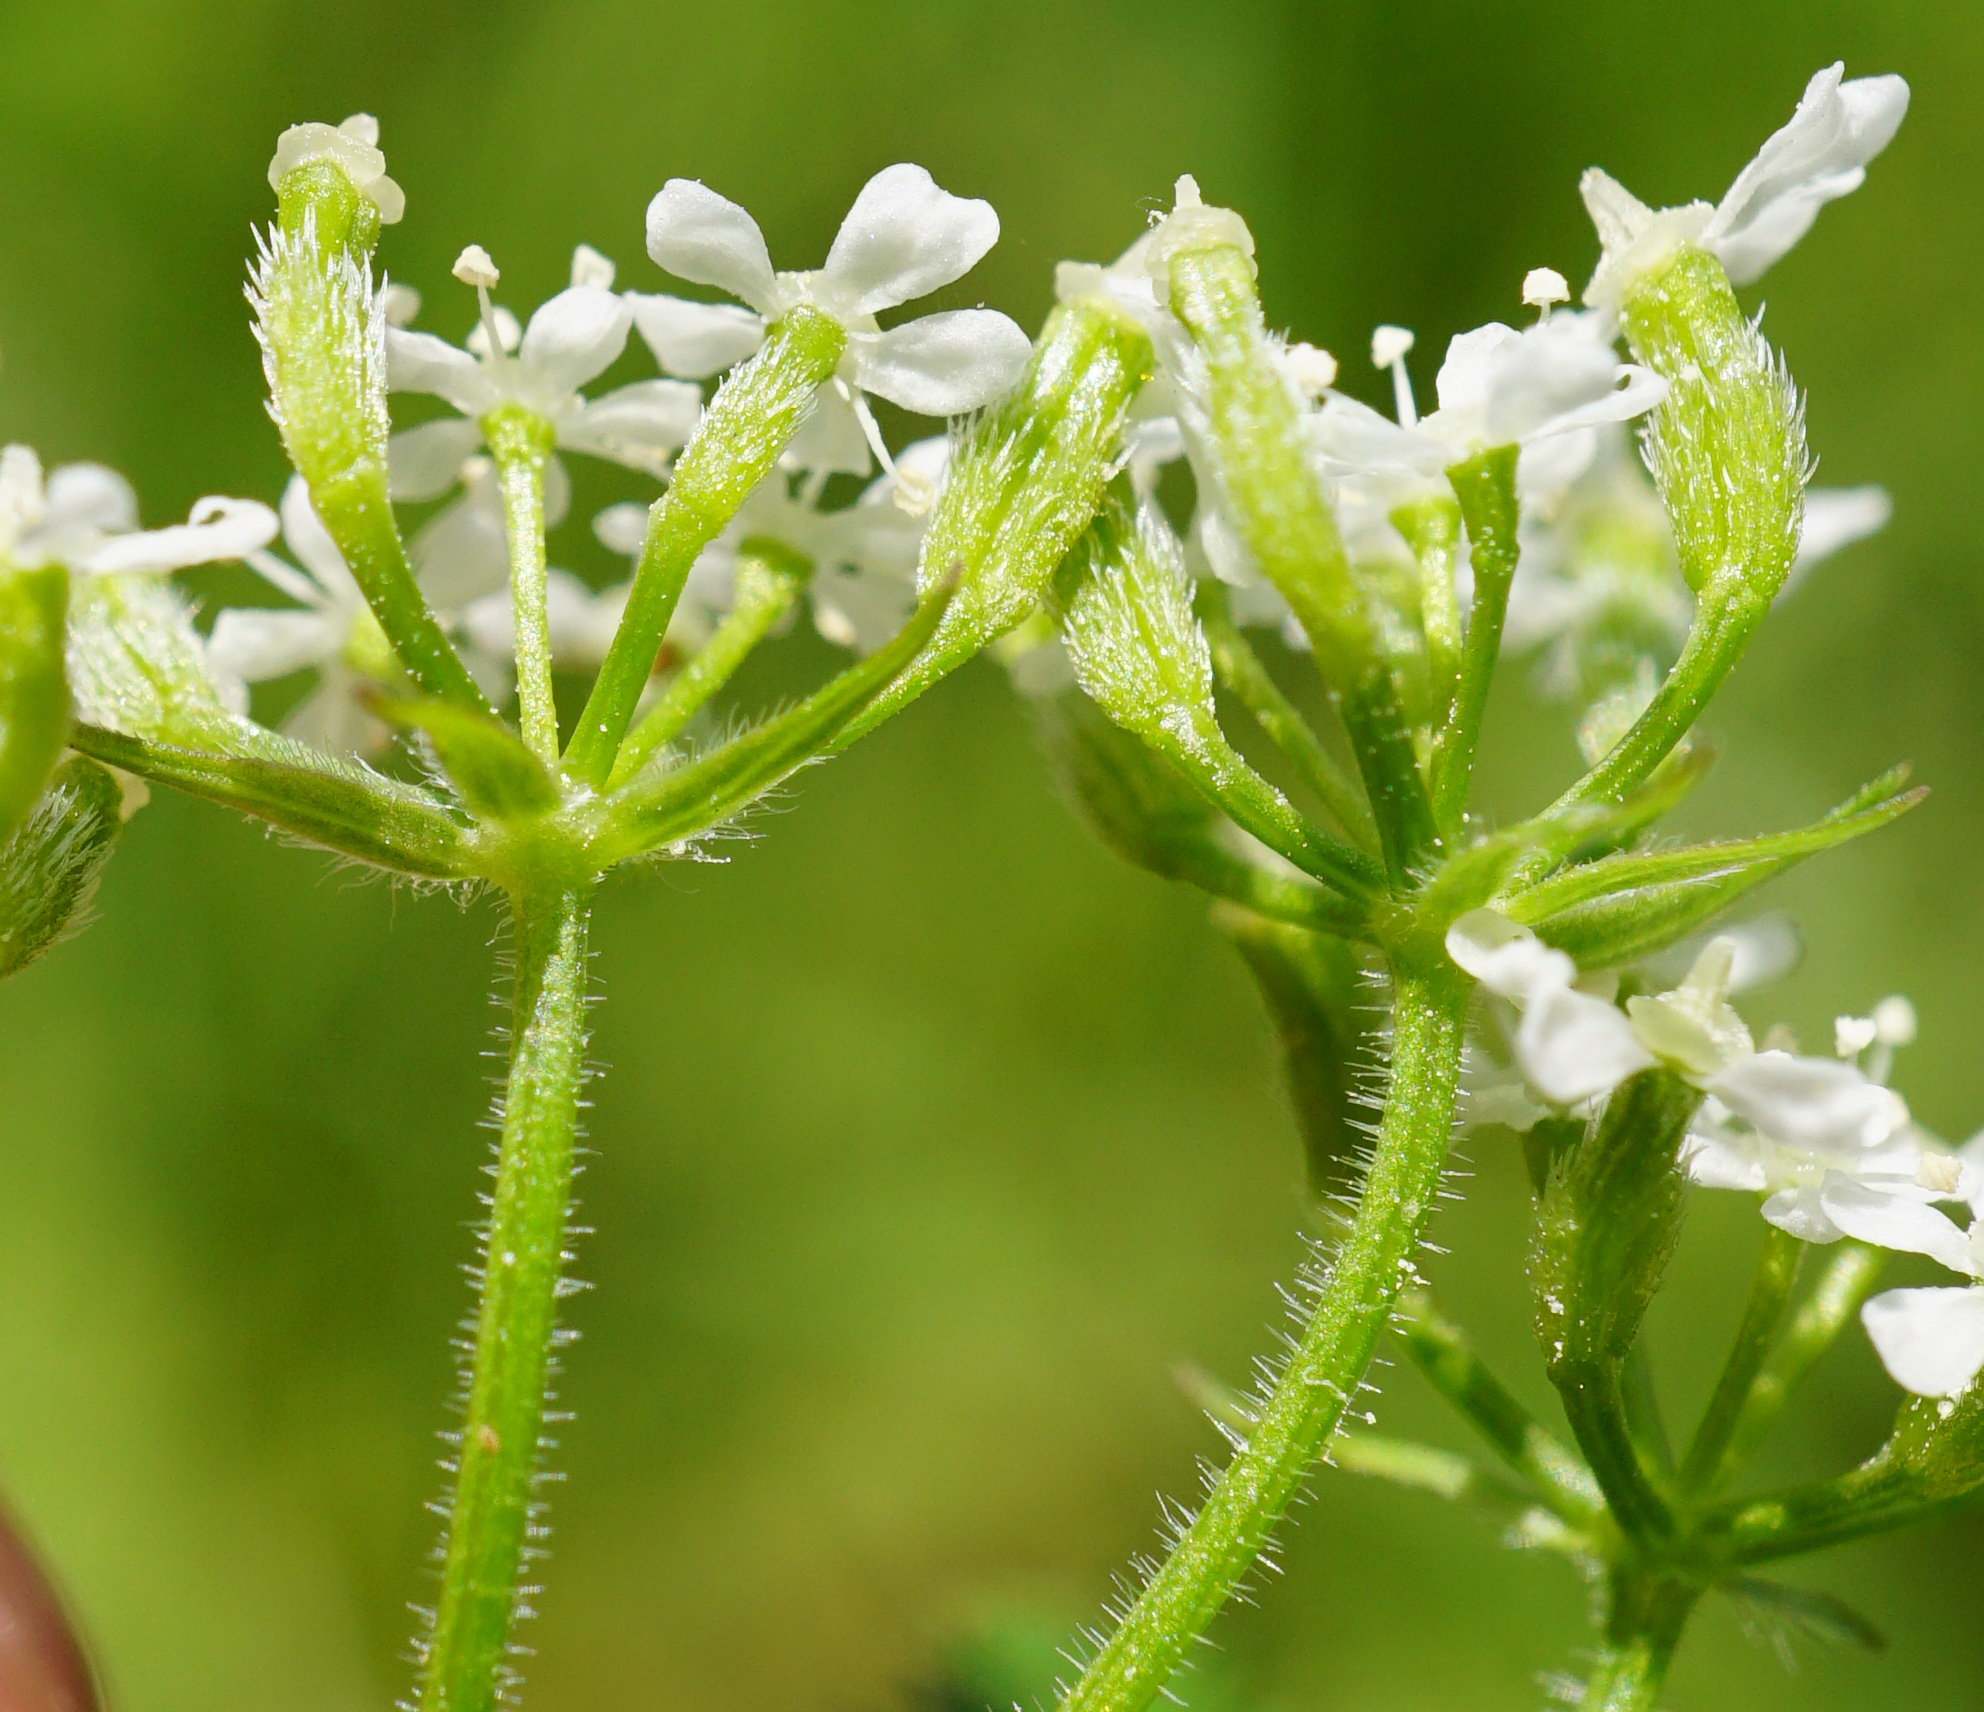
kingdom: Plantae
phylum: Tracheophyta
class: Magnoliopsida
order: Apiales
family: Apiaceae
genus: Anthriscus
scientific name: Anthriscus cerefolium
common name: Garden chervil
